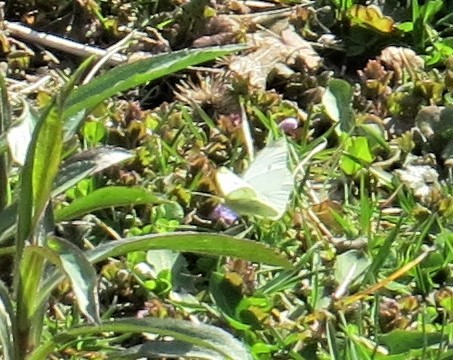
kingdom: Animalia
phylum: Arthropoda
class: Insecta
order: Lepidoptera
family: Pieridae
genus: Pieris
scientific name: Pieris rapae
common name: Small white
